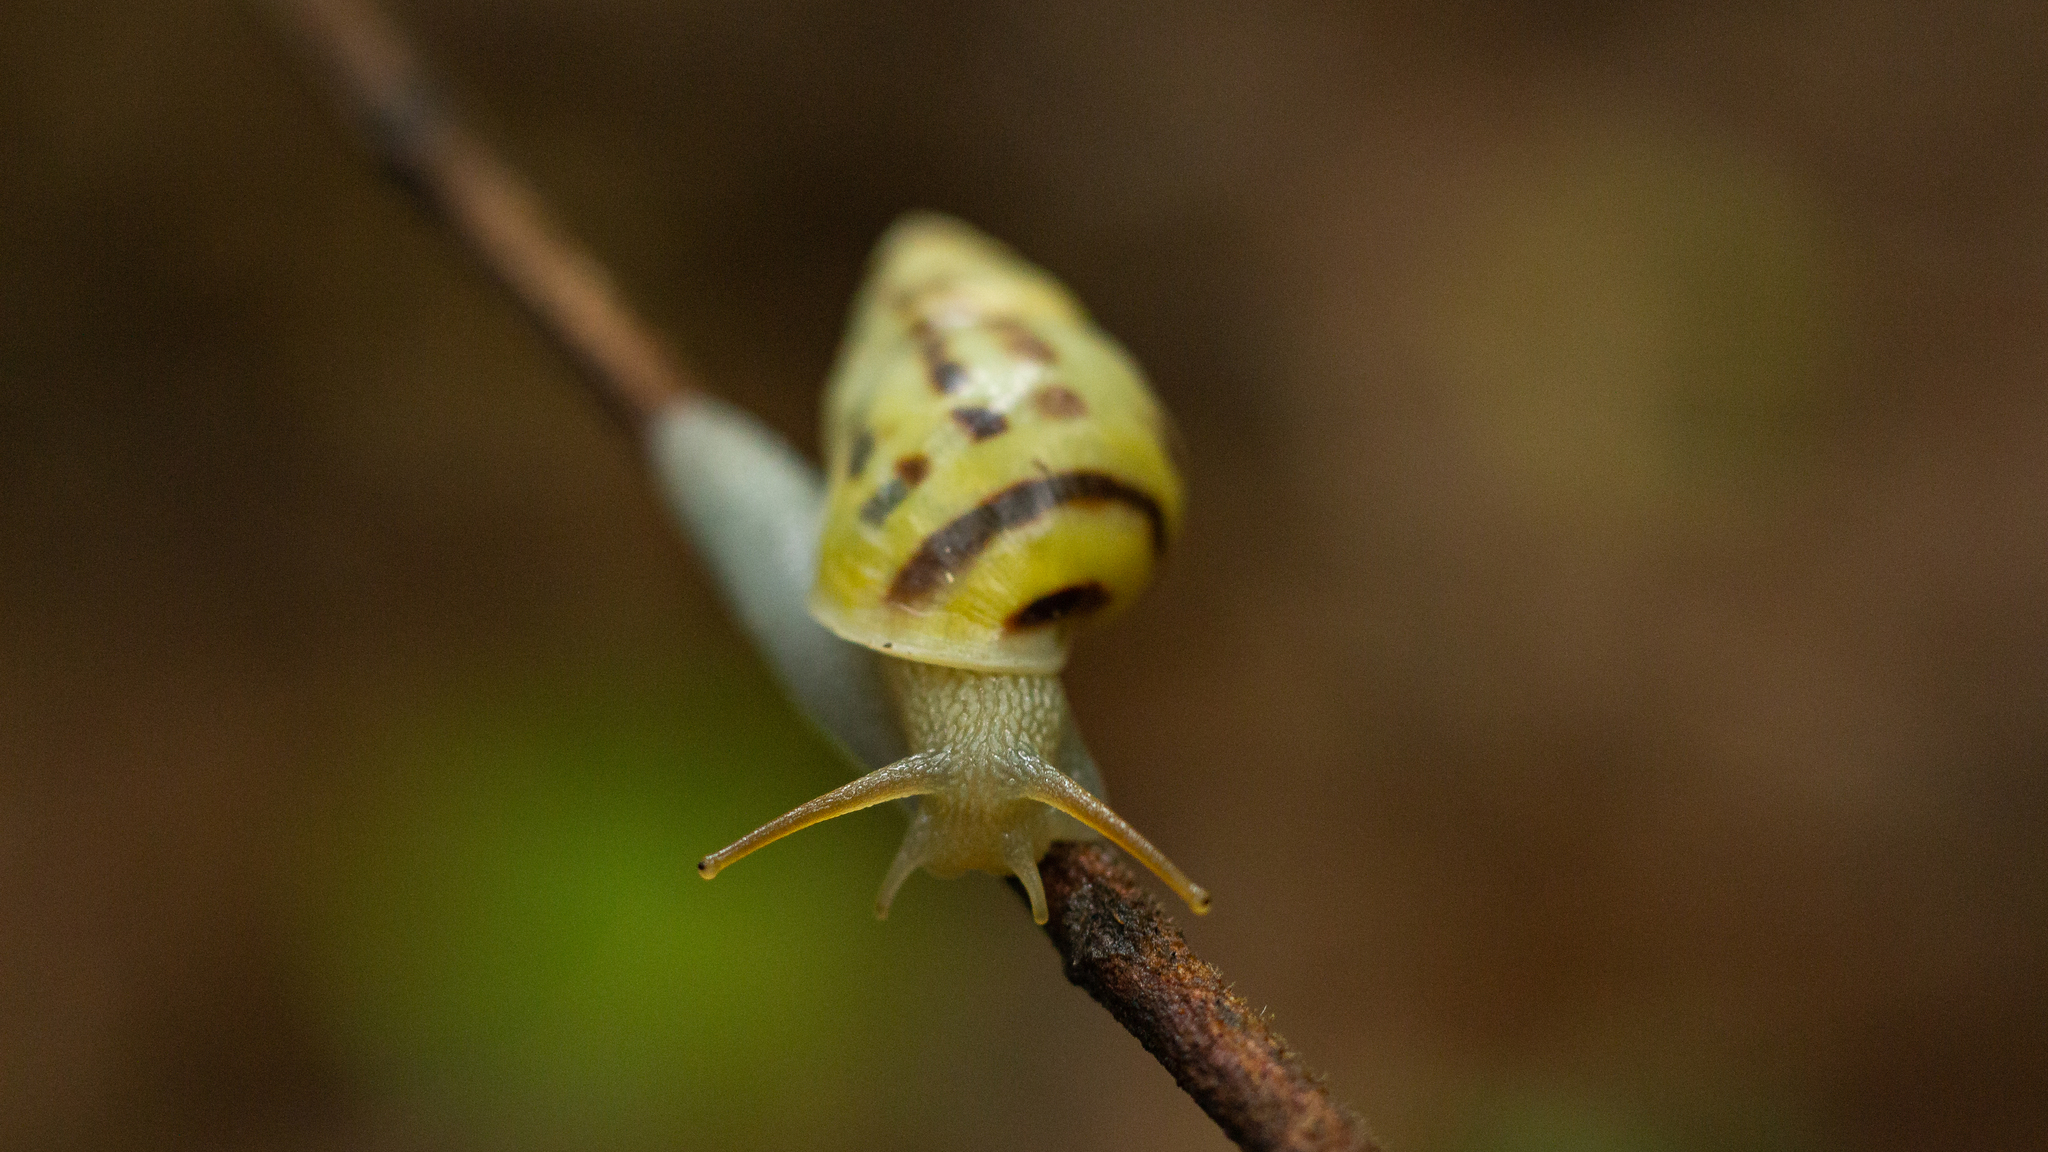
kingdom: Animalia
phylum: Mollusca
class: Gastropoda
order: Stylommatophora
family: Bulimulidae
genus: Drymaeus
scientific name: Drymaeus
